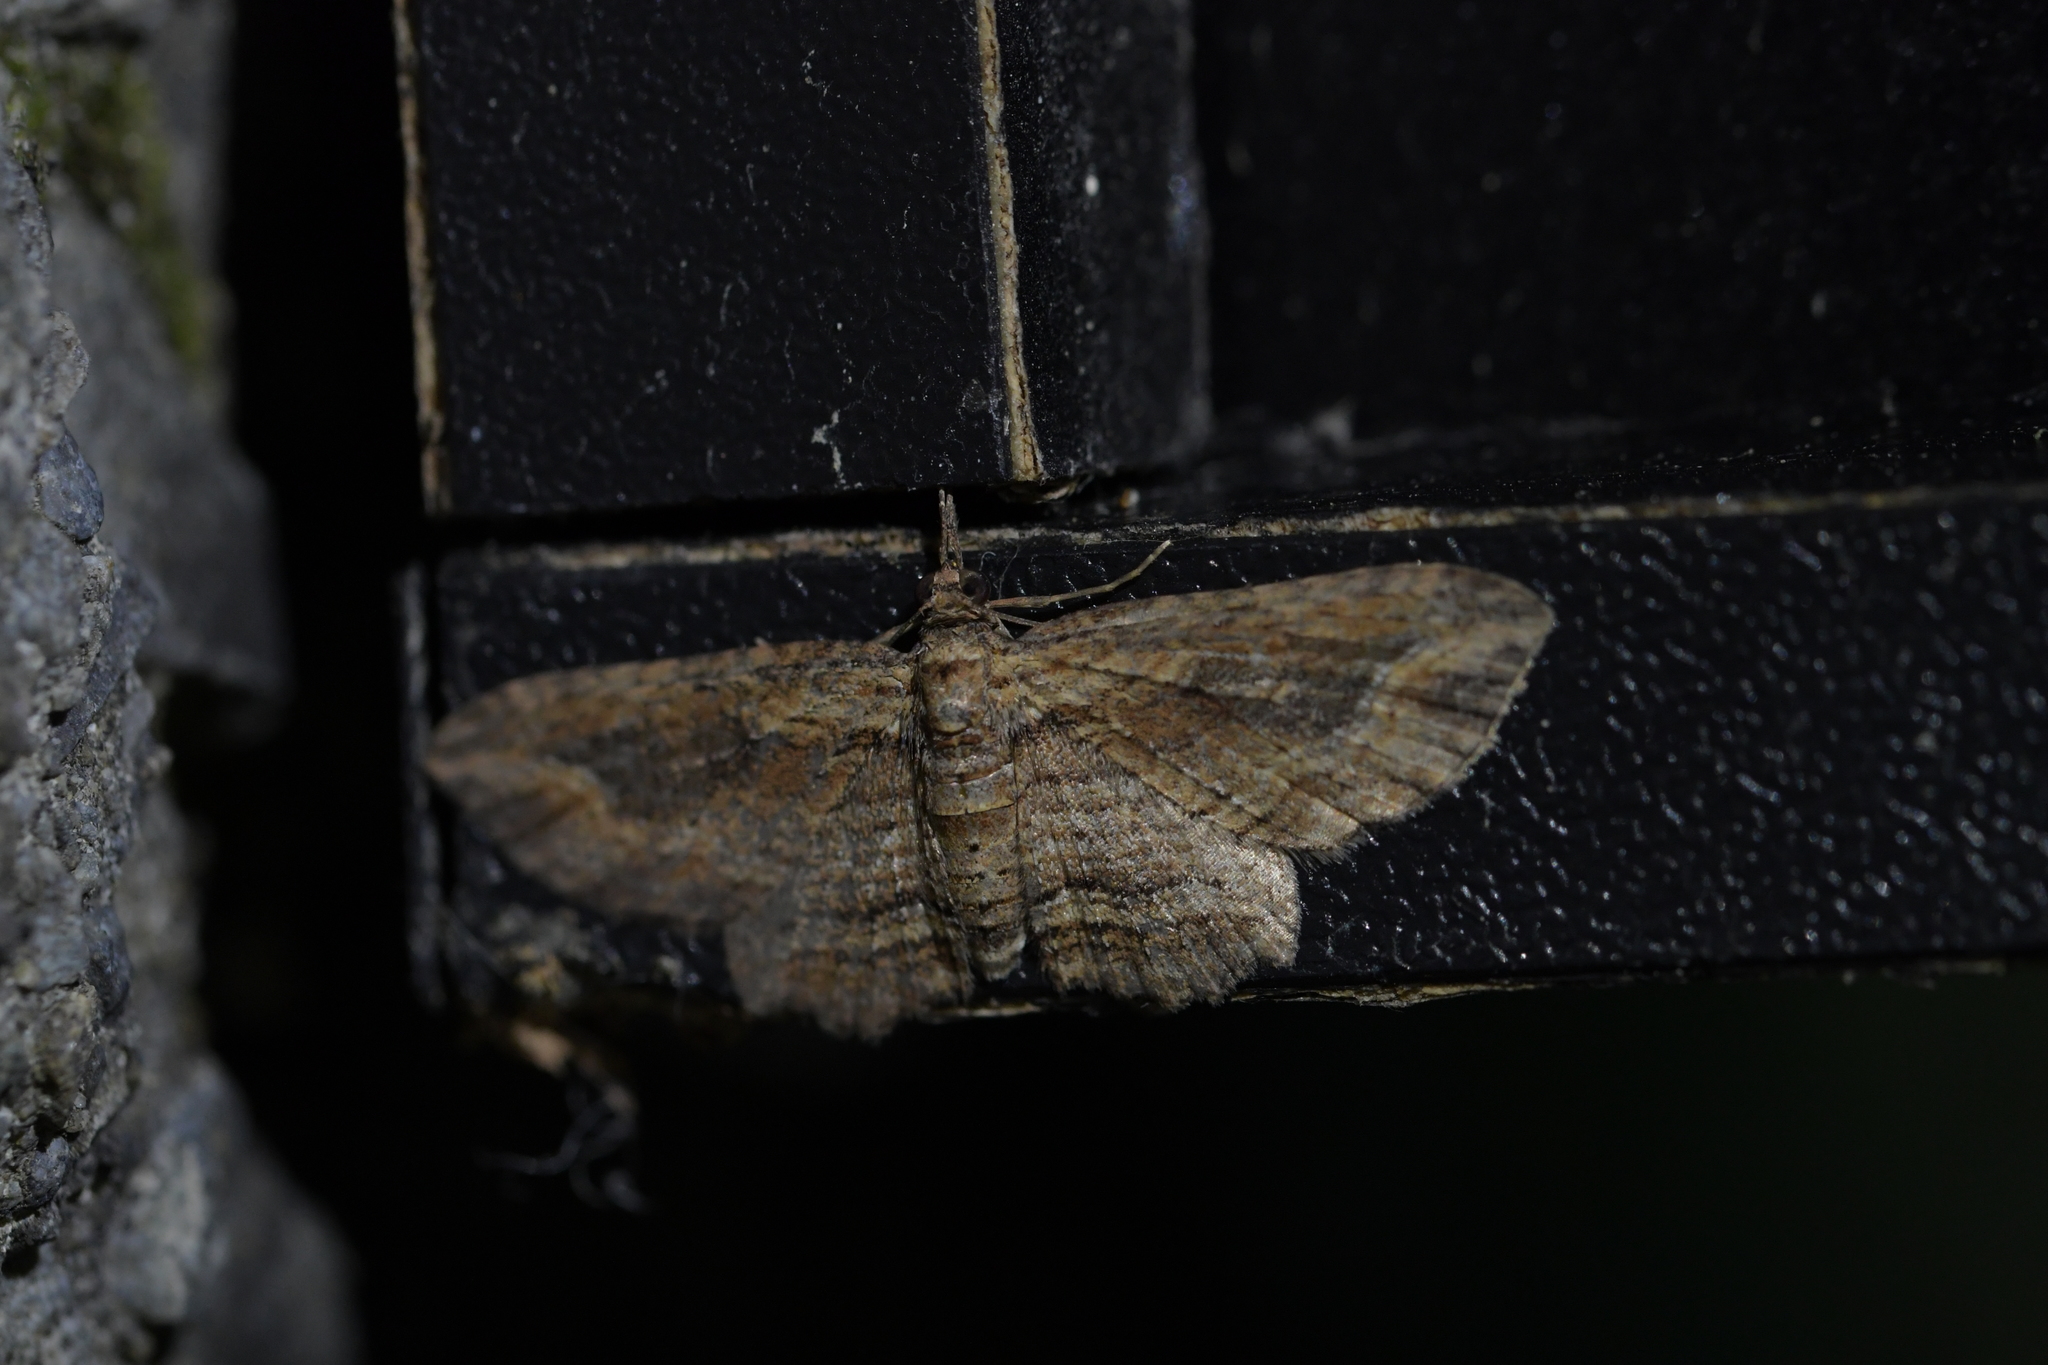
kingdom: Animalia
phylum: Arthropoda
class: Insecta
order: Lepidoptera
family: Geometridae
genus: Chloroclystis
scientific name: Chloroclystis filata
